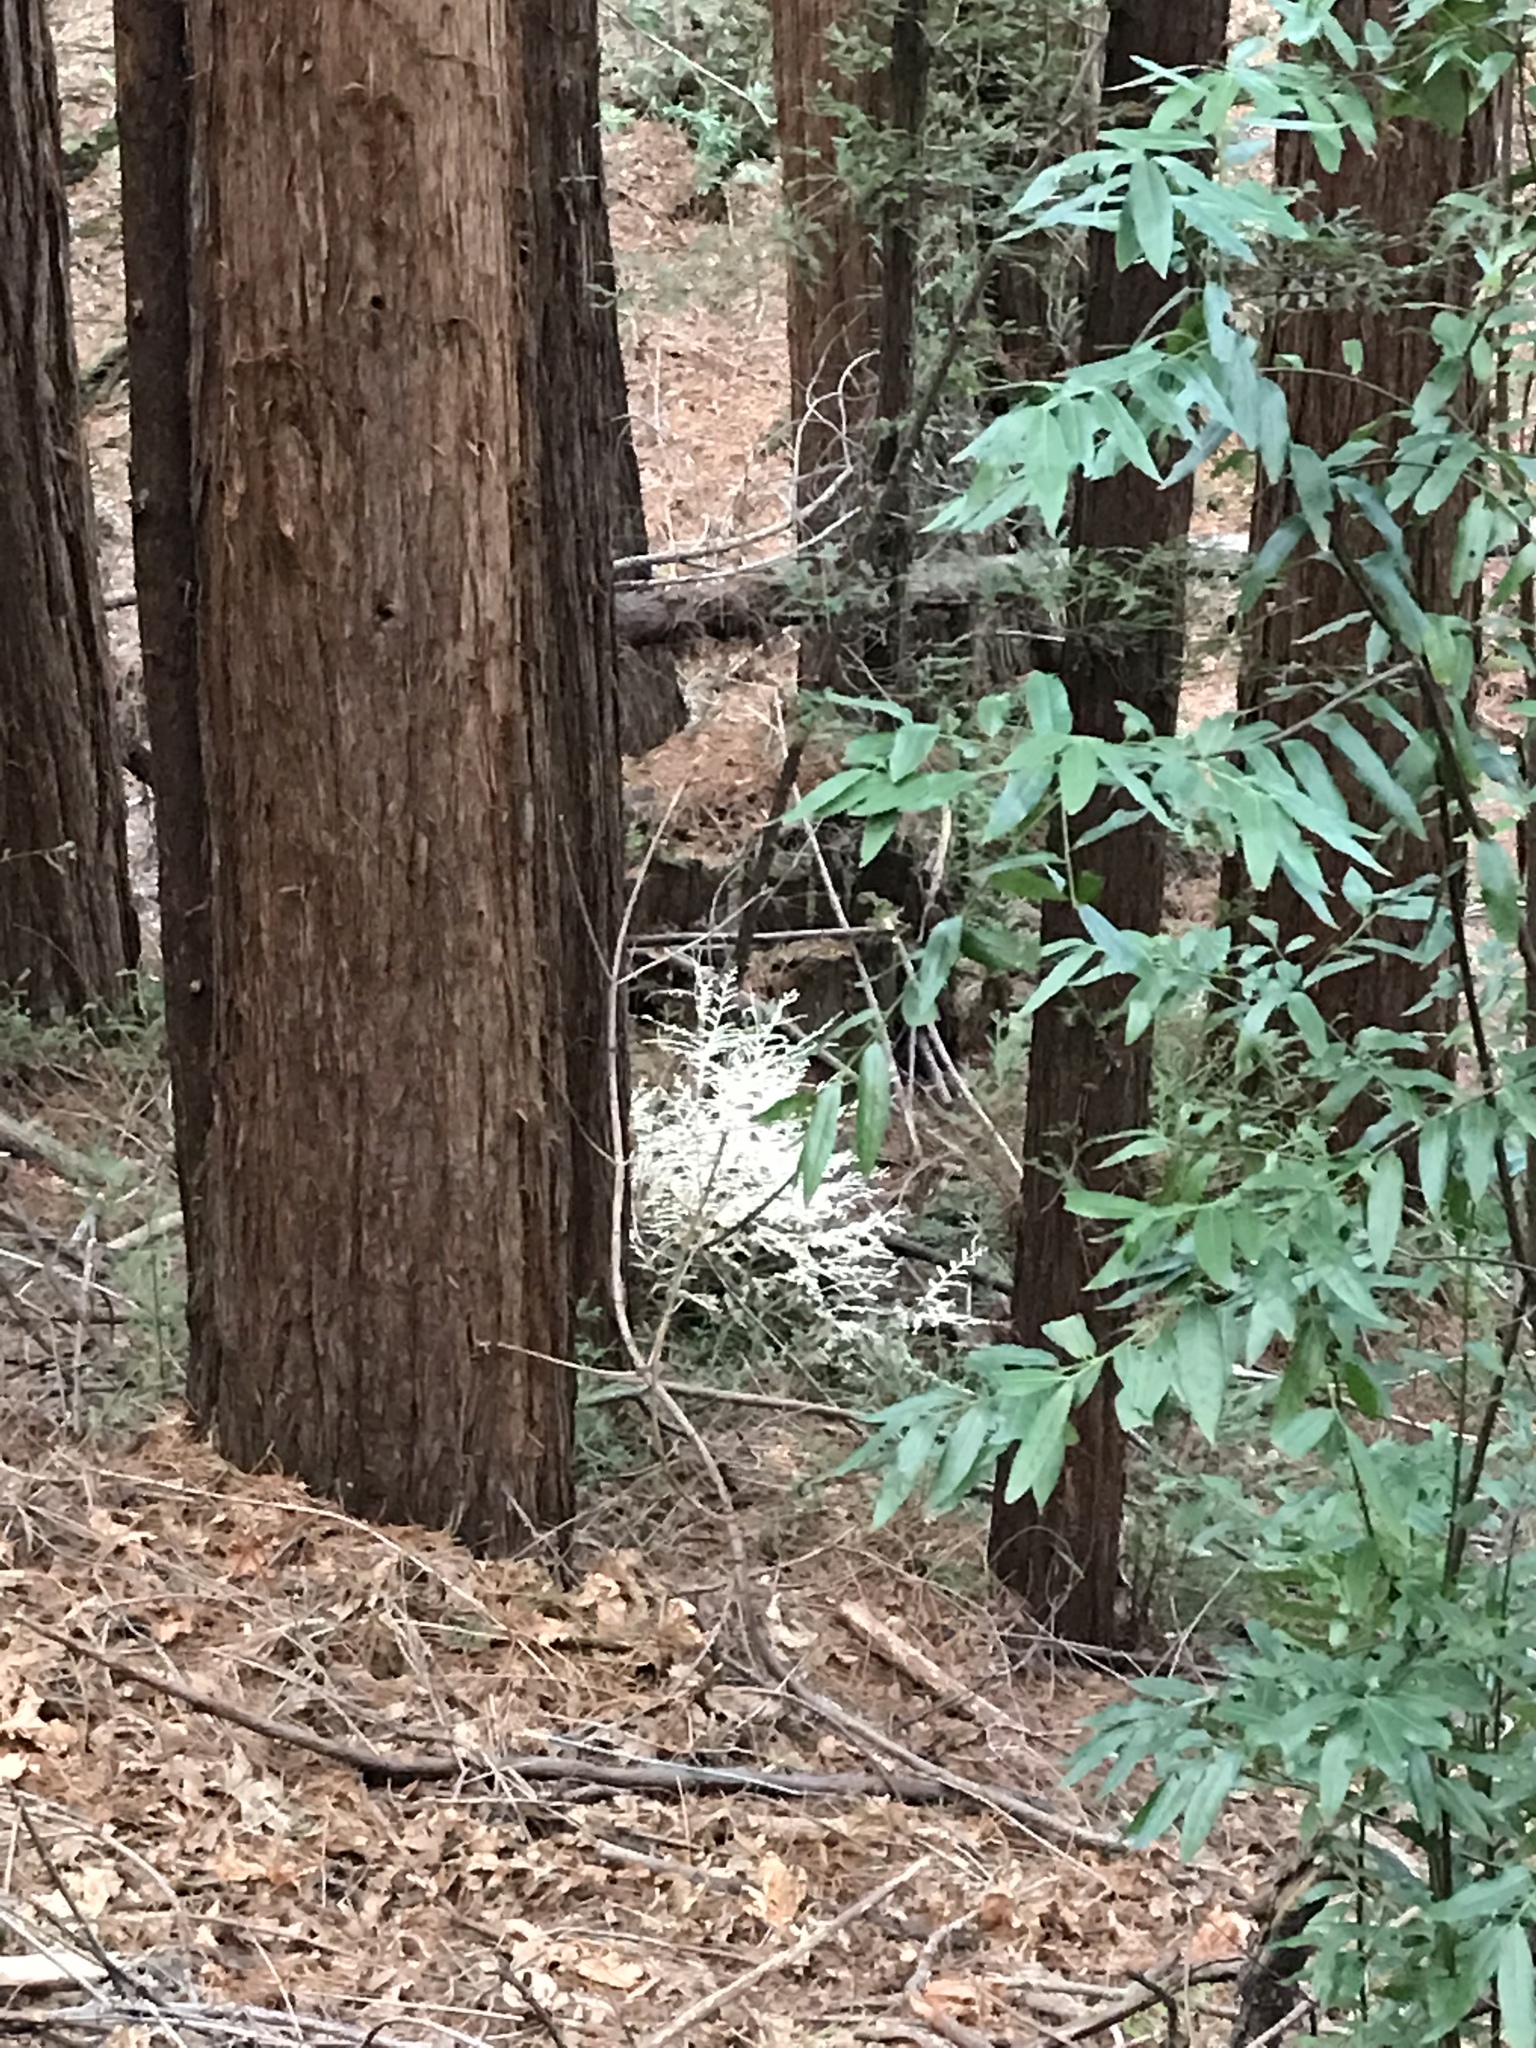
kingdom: Plantae
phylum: Tracheophyta
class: Pinopsida
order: Pinales
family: Cupressaceae
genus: Sequoia
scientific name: Sequoia sempervirens
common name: Coast redwood
